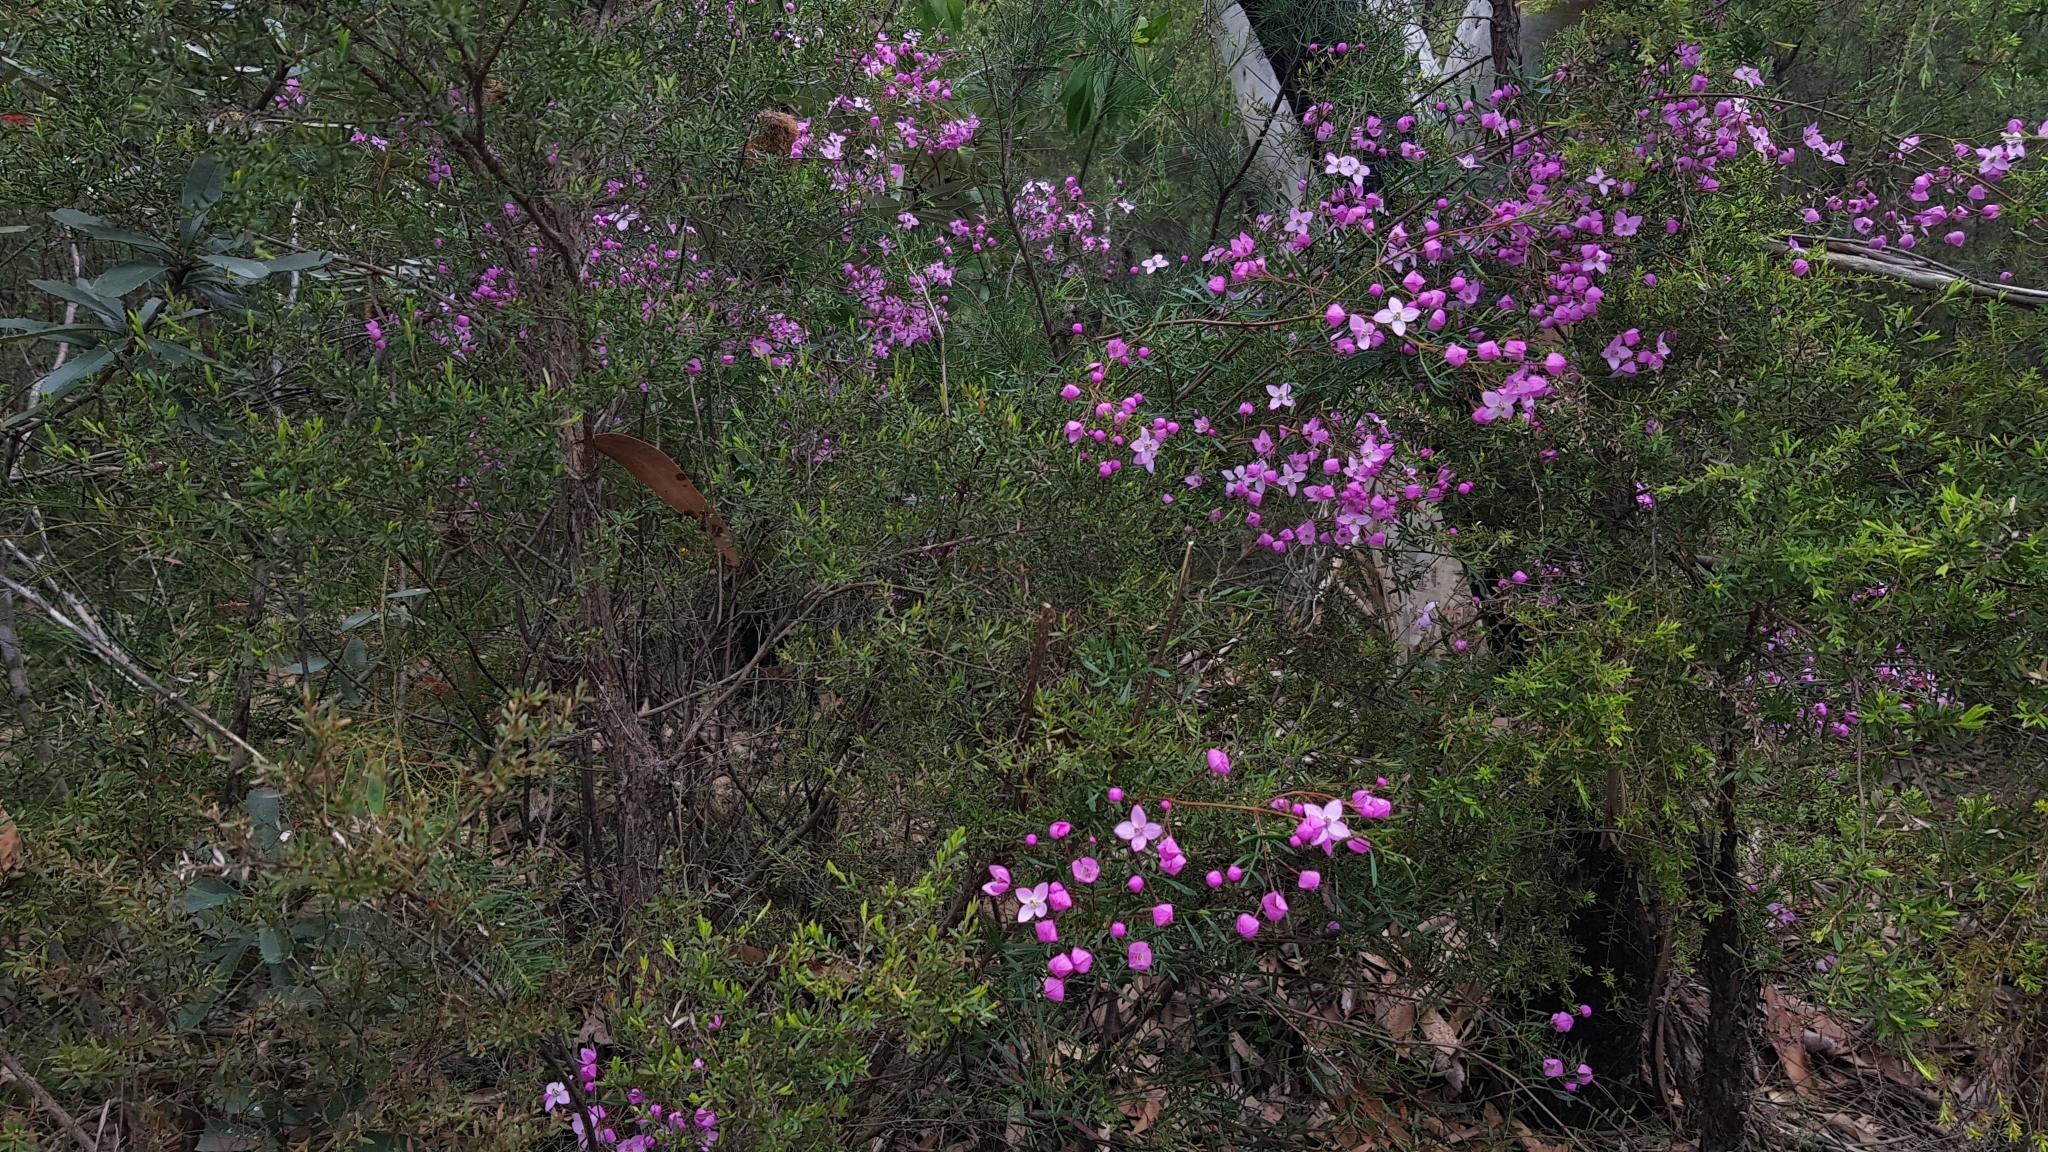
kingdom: Plantae
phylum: Tracheophyta
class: Magnoliopsida
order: Sapindales
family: Rutaceae
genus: Boronia
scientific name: Boronia pinnata
